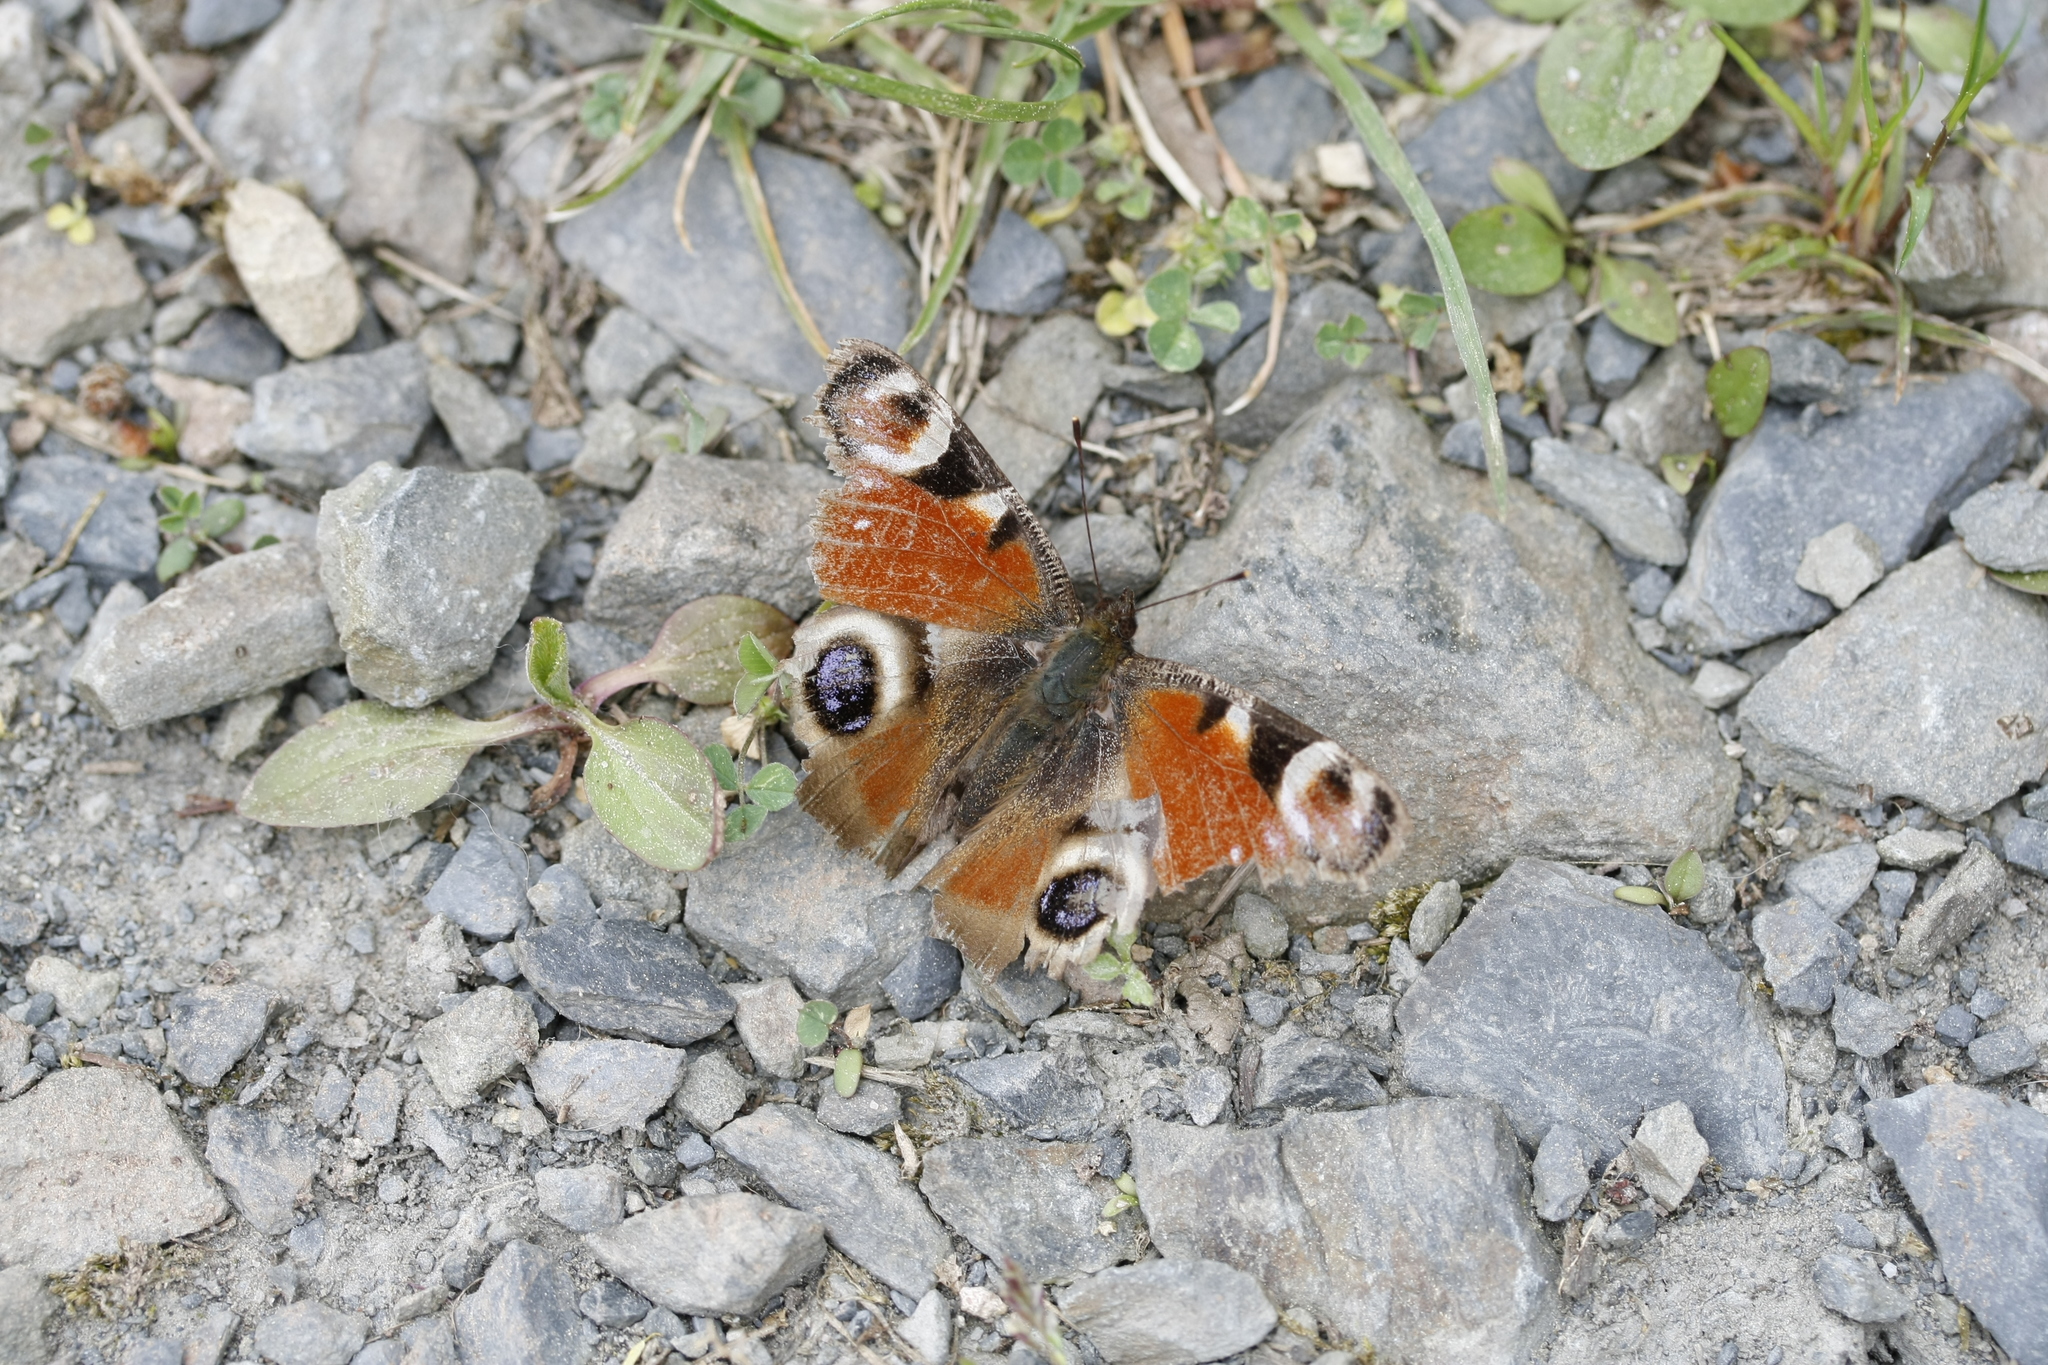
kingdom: Animalia
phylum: Arthropoda
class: Insecta
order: Lepidoptera
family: Nymphalidae
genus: Aglais
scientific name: Aglais io
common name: Peacock
